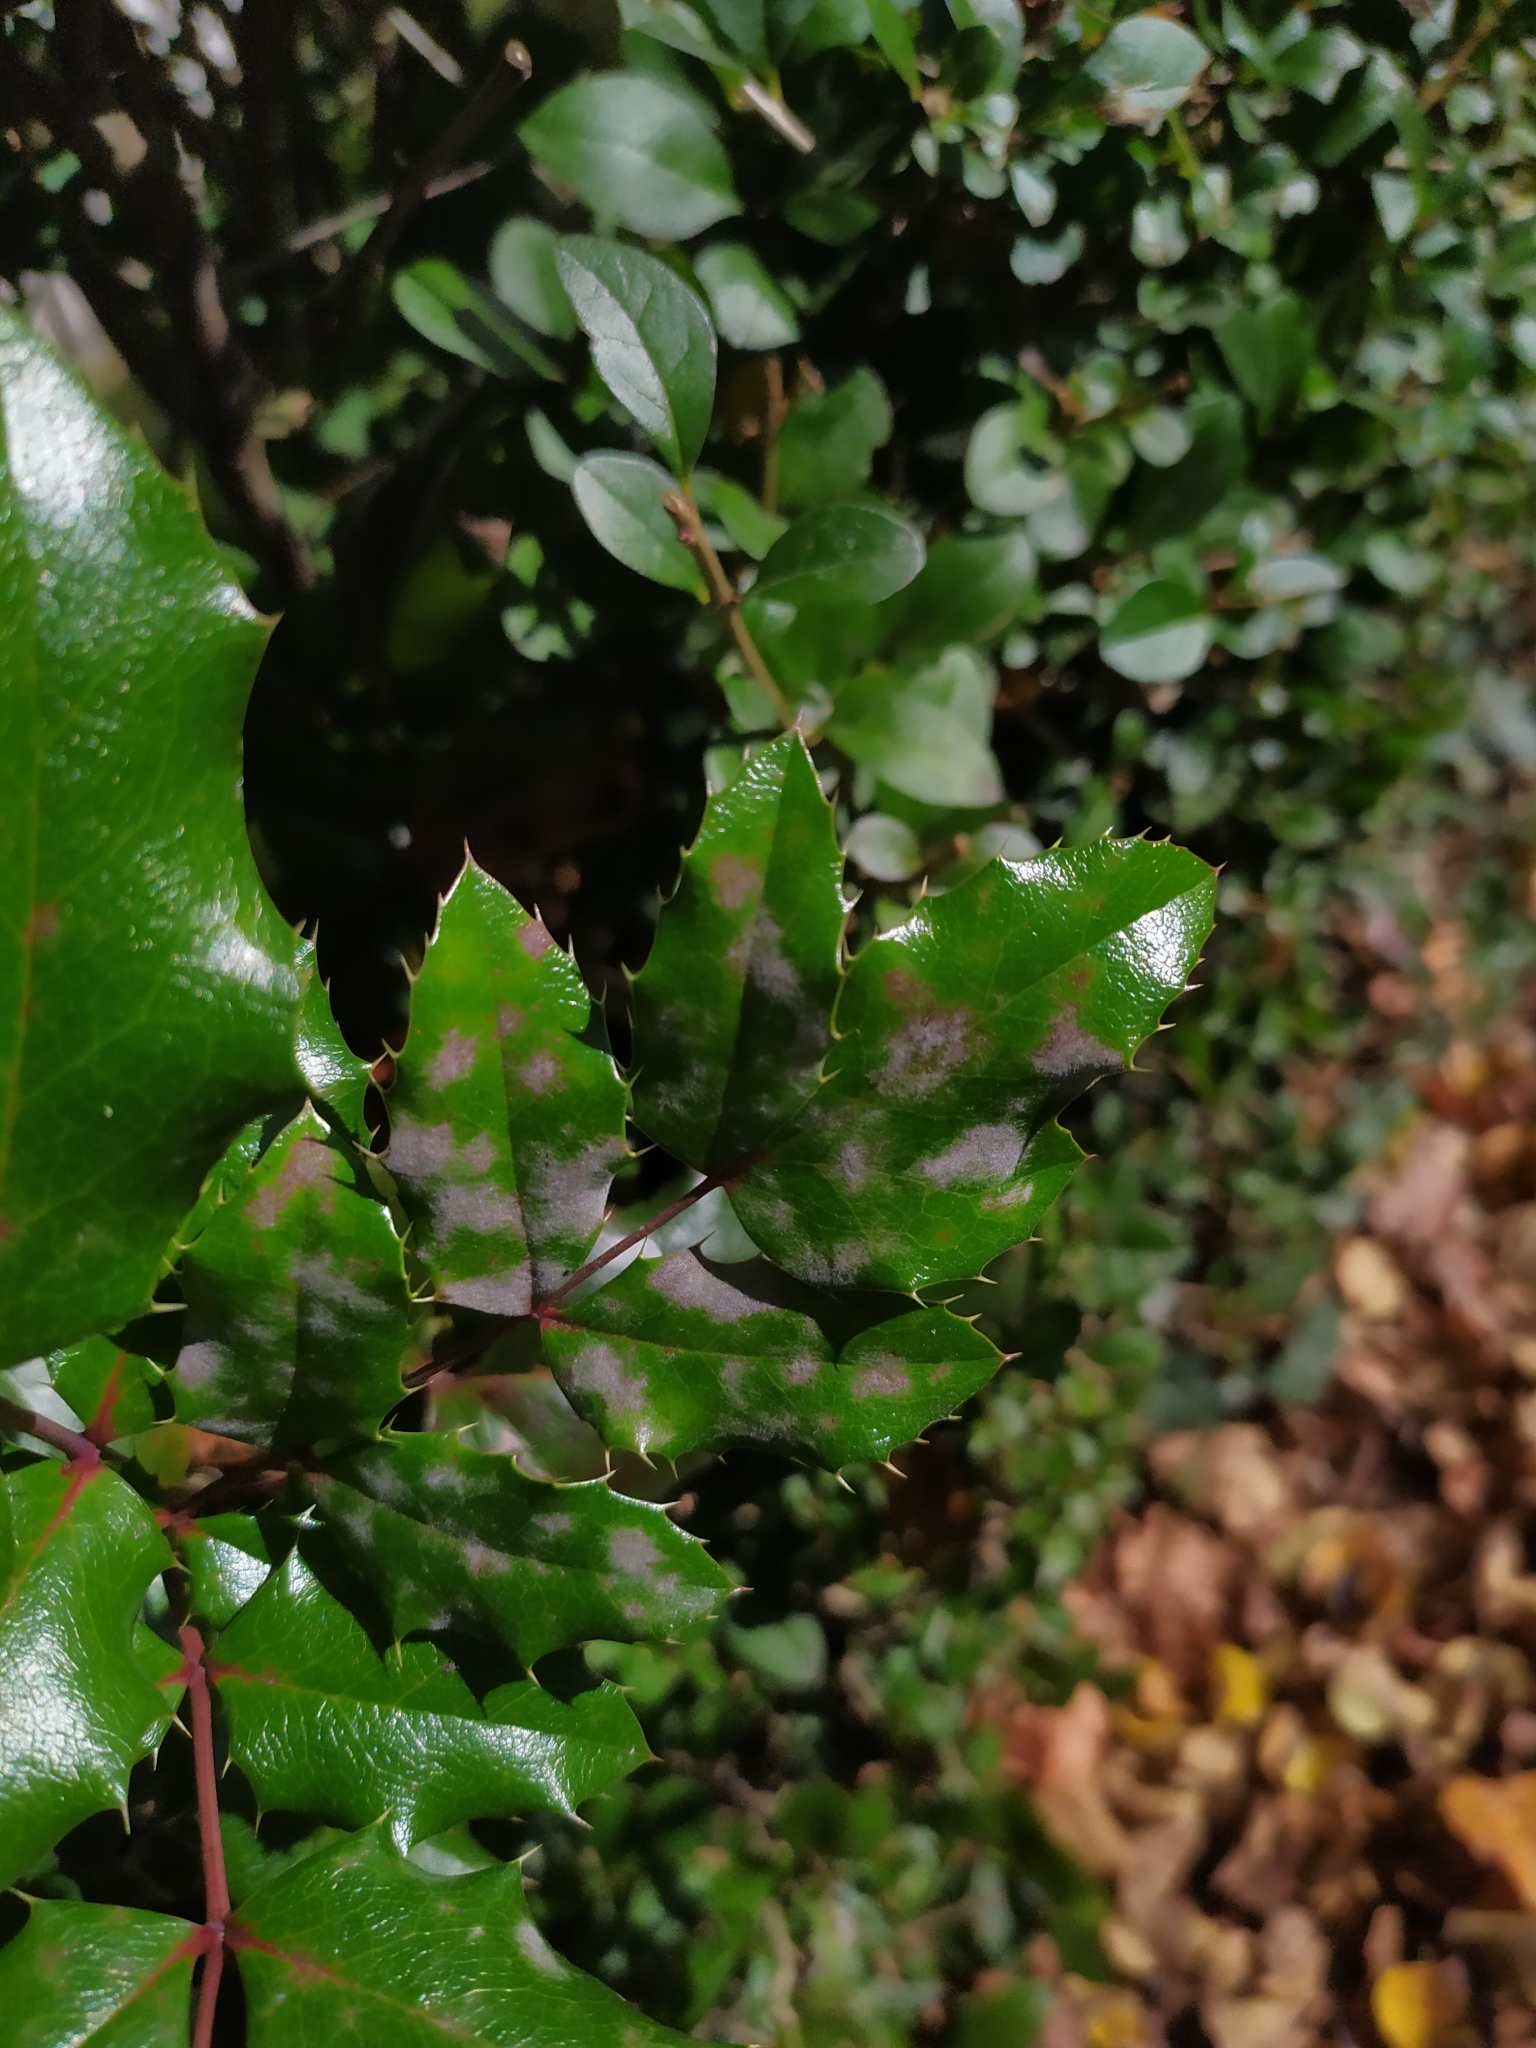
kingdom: Fungi
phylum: Ascomycota
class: Leotiomycetes
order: Helotiales
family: Erysiphaceae
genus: Erysiphe
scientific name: Erysiphe berberidis
